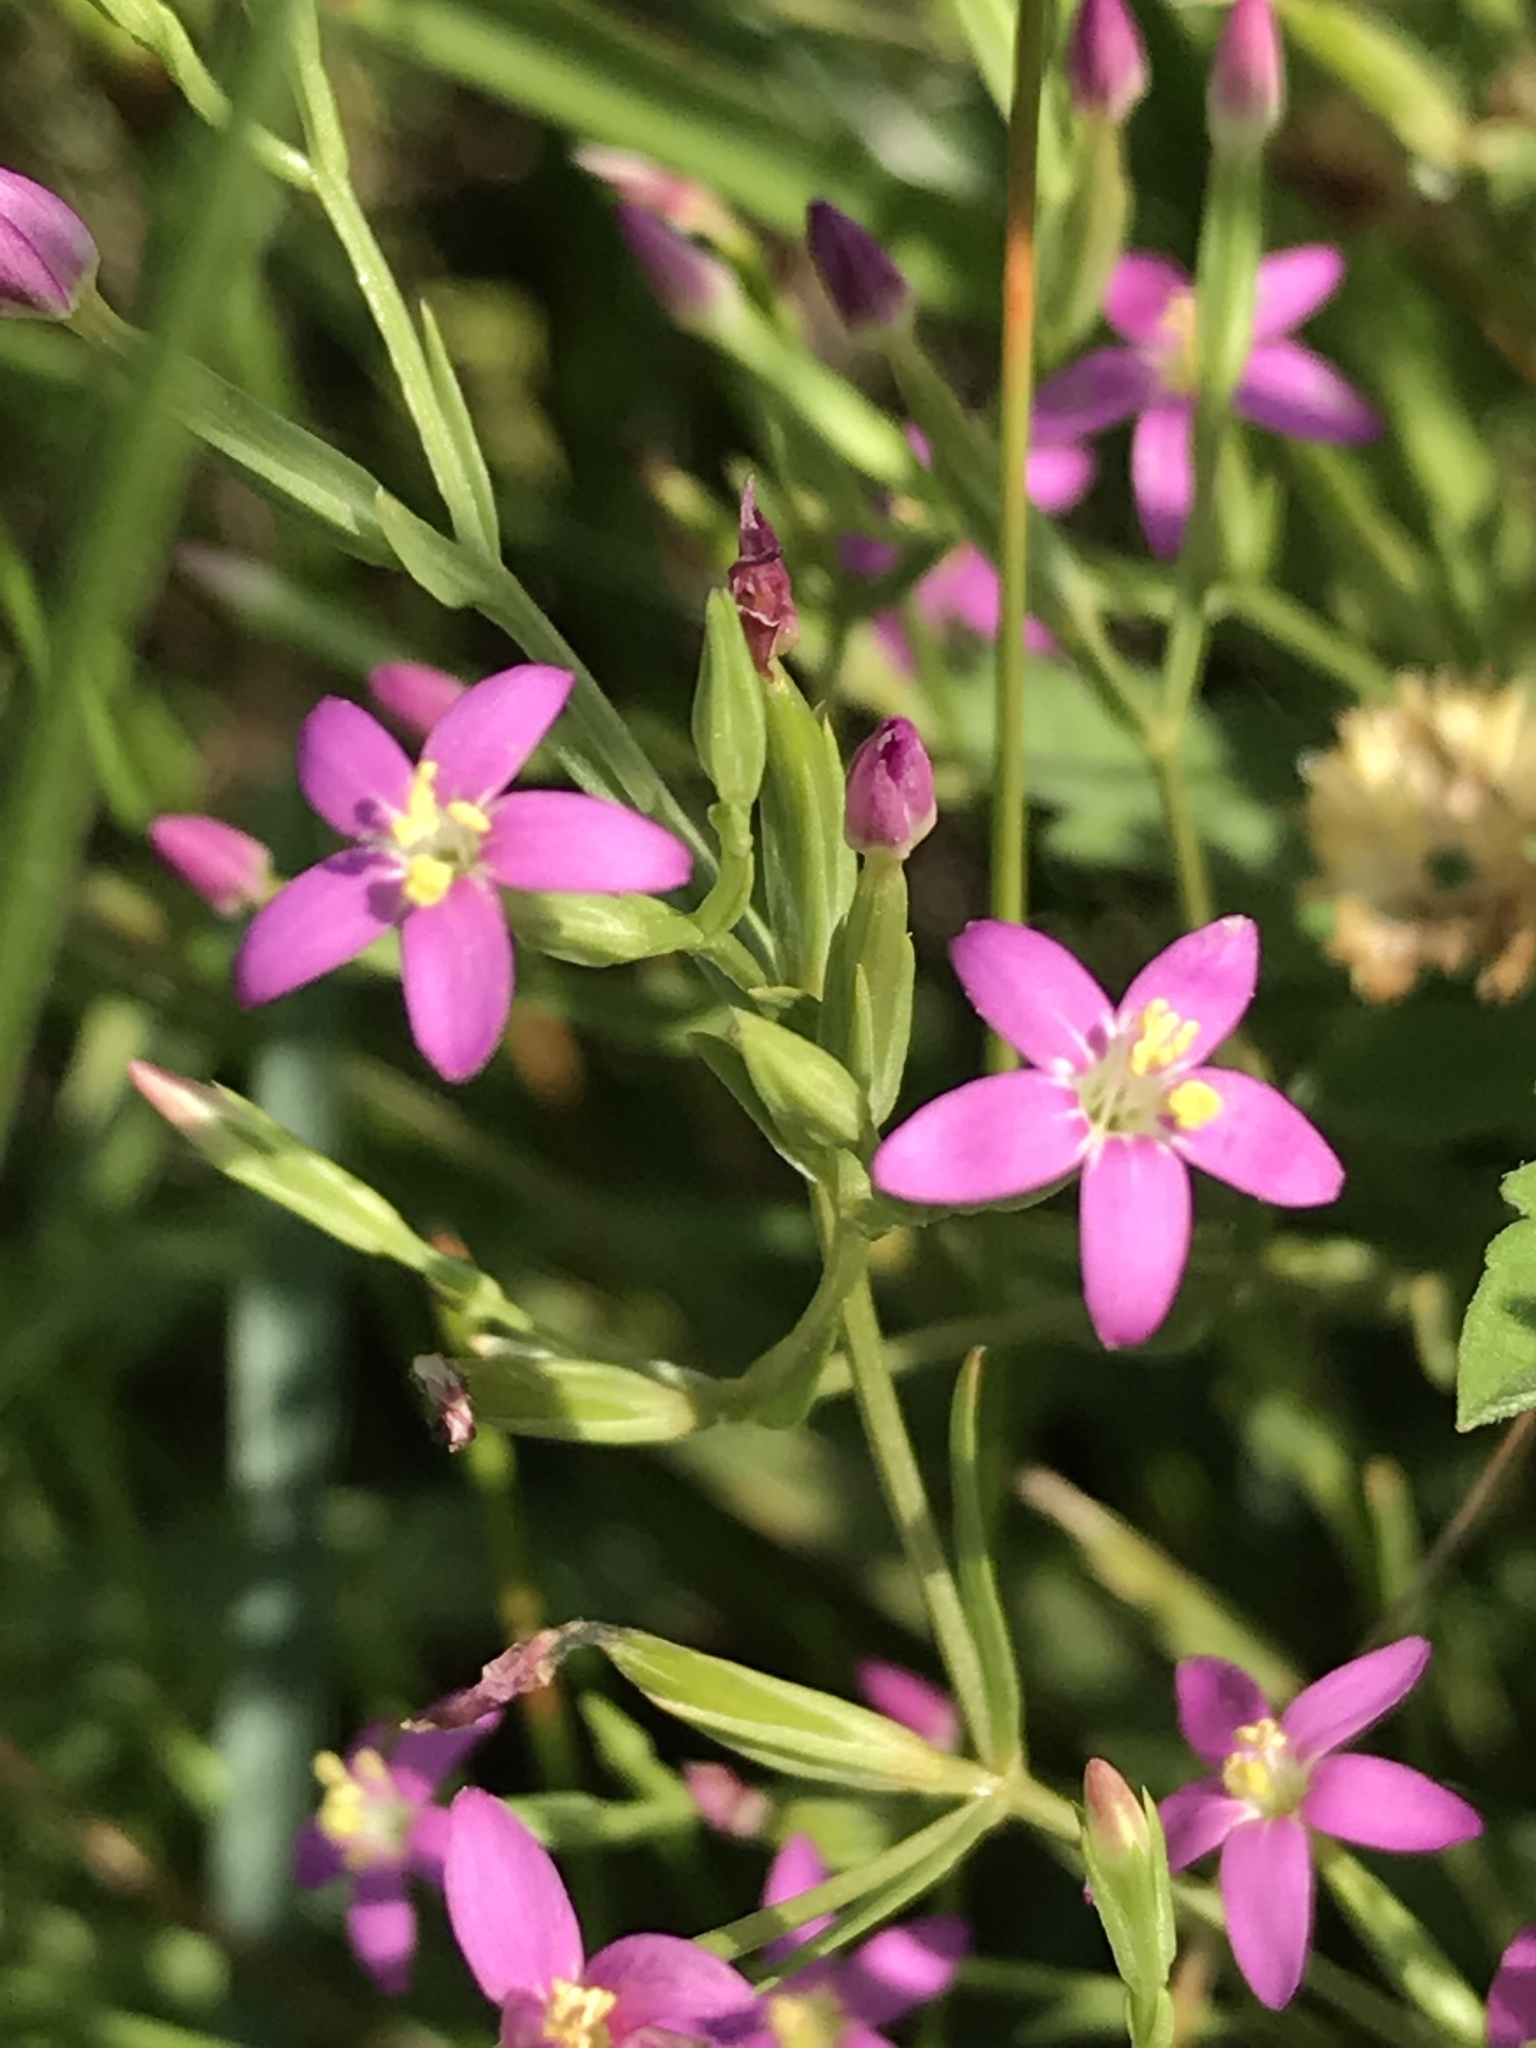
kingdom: Plantae
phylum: Tracheophyta
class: Magnoliopsida
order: Gentianales
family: Gentianaceae
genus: Centaurium
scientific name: Centaurium pulchellum
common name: Lesser centaury
